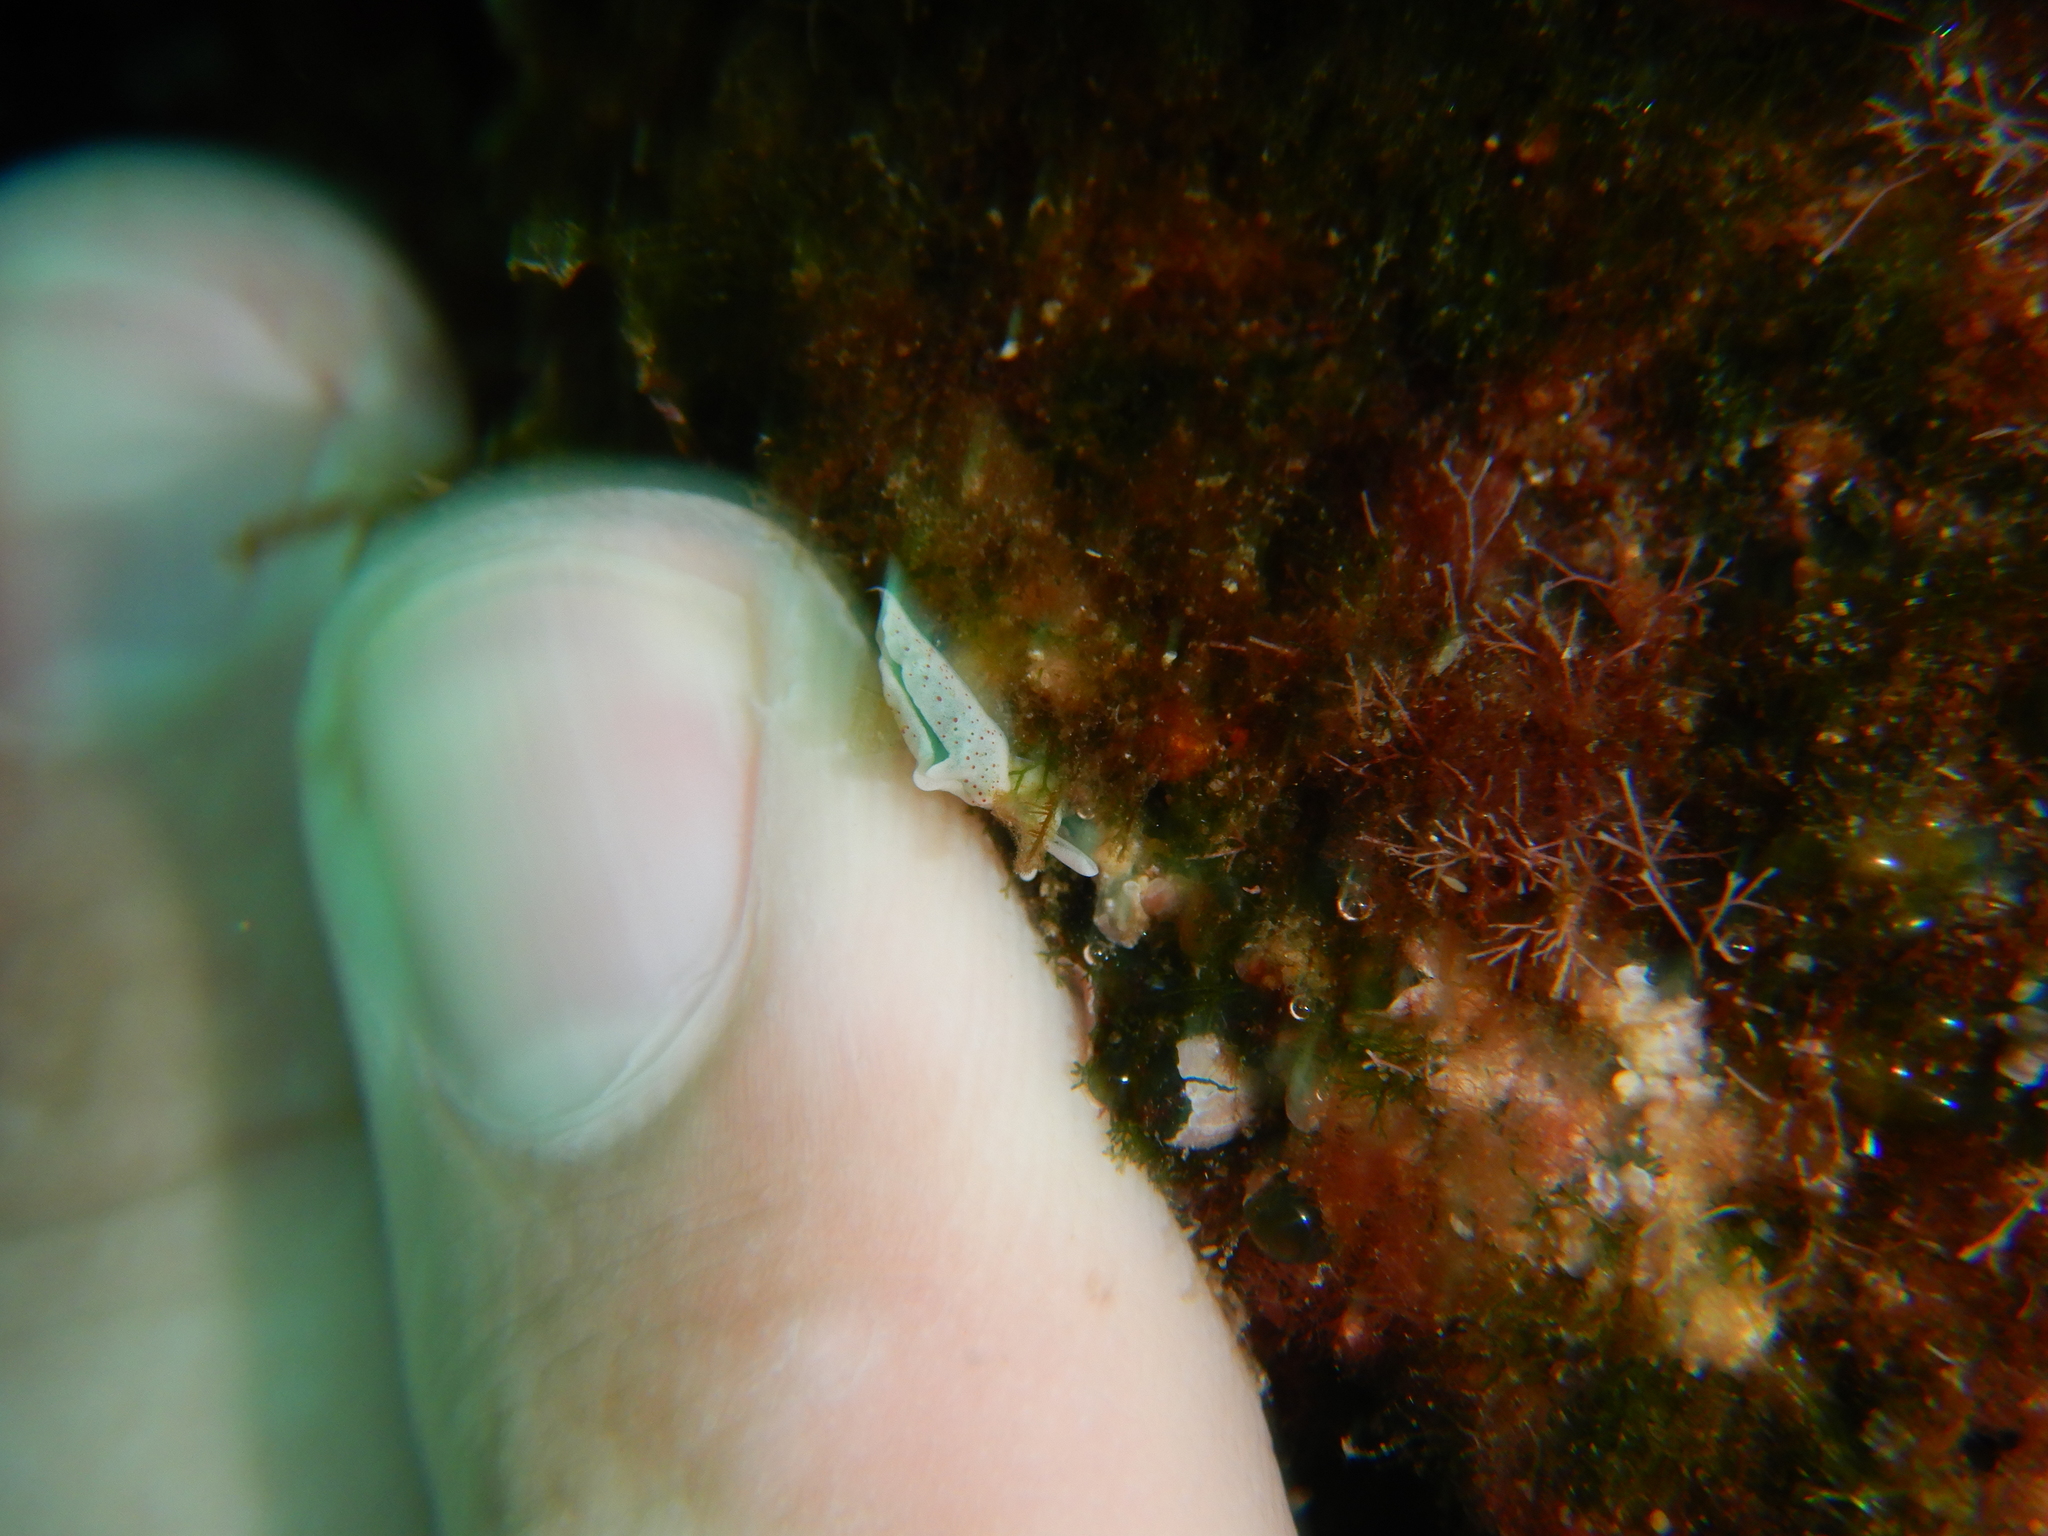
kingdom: Animalia
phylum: Mollusca
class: Gastropoda
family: Plakobranchidae
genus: Elysia
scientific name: Elysia timida
